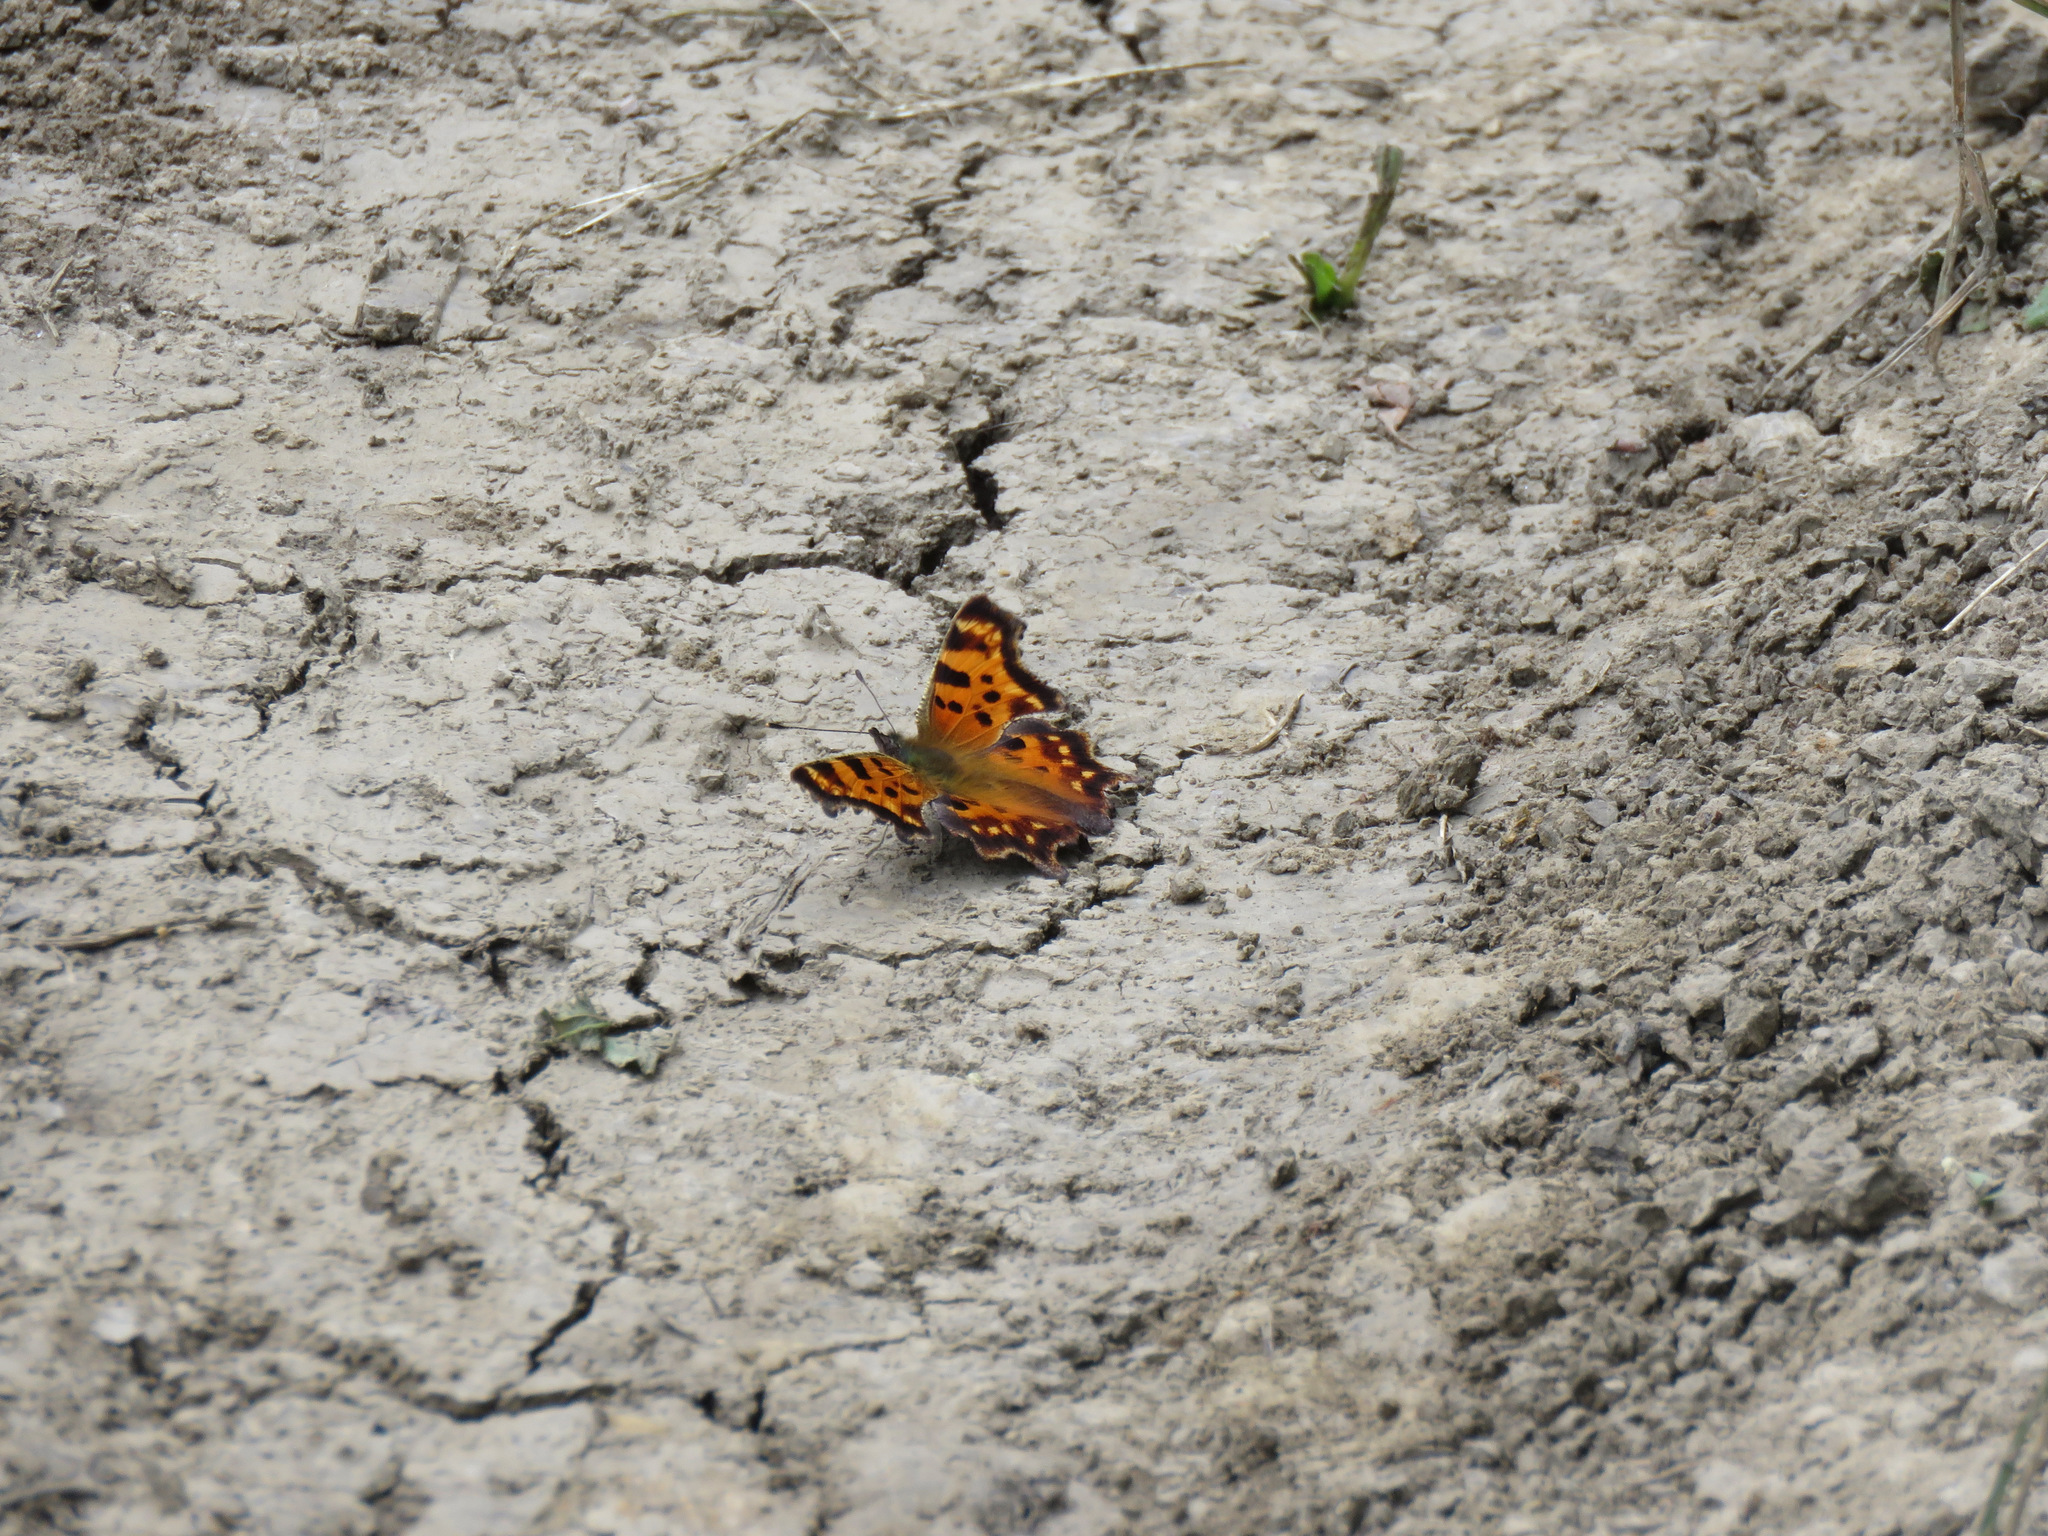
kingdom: Animalia
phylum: Arthropoda
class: Insecta
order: Lepidoptera
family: Nymphalidae
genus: Polygonia
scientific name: Polygonia faunus
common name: Green comma
